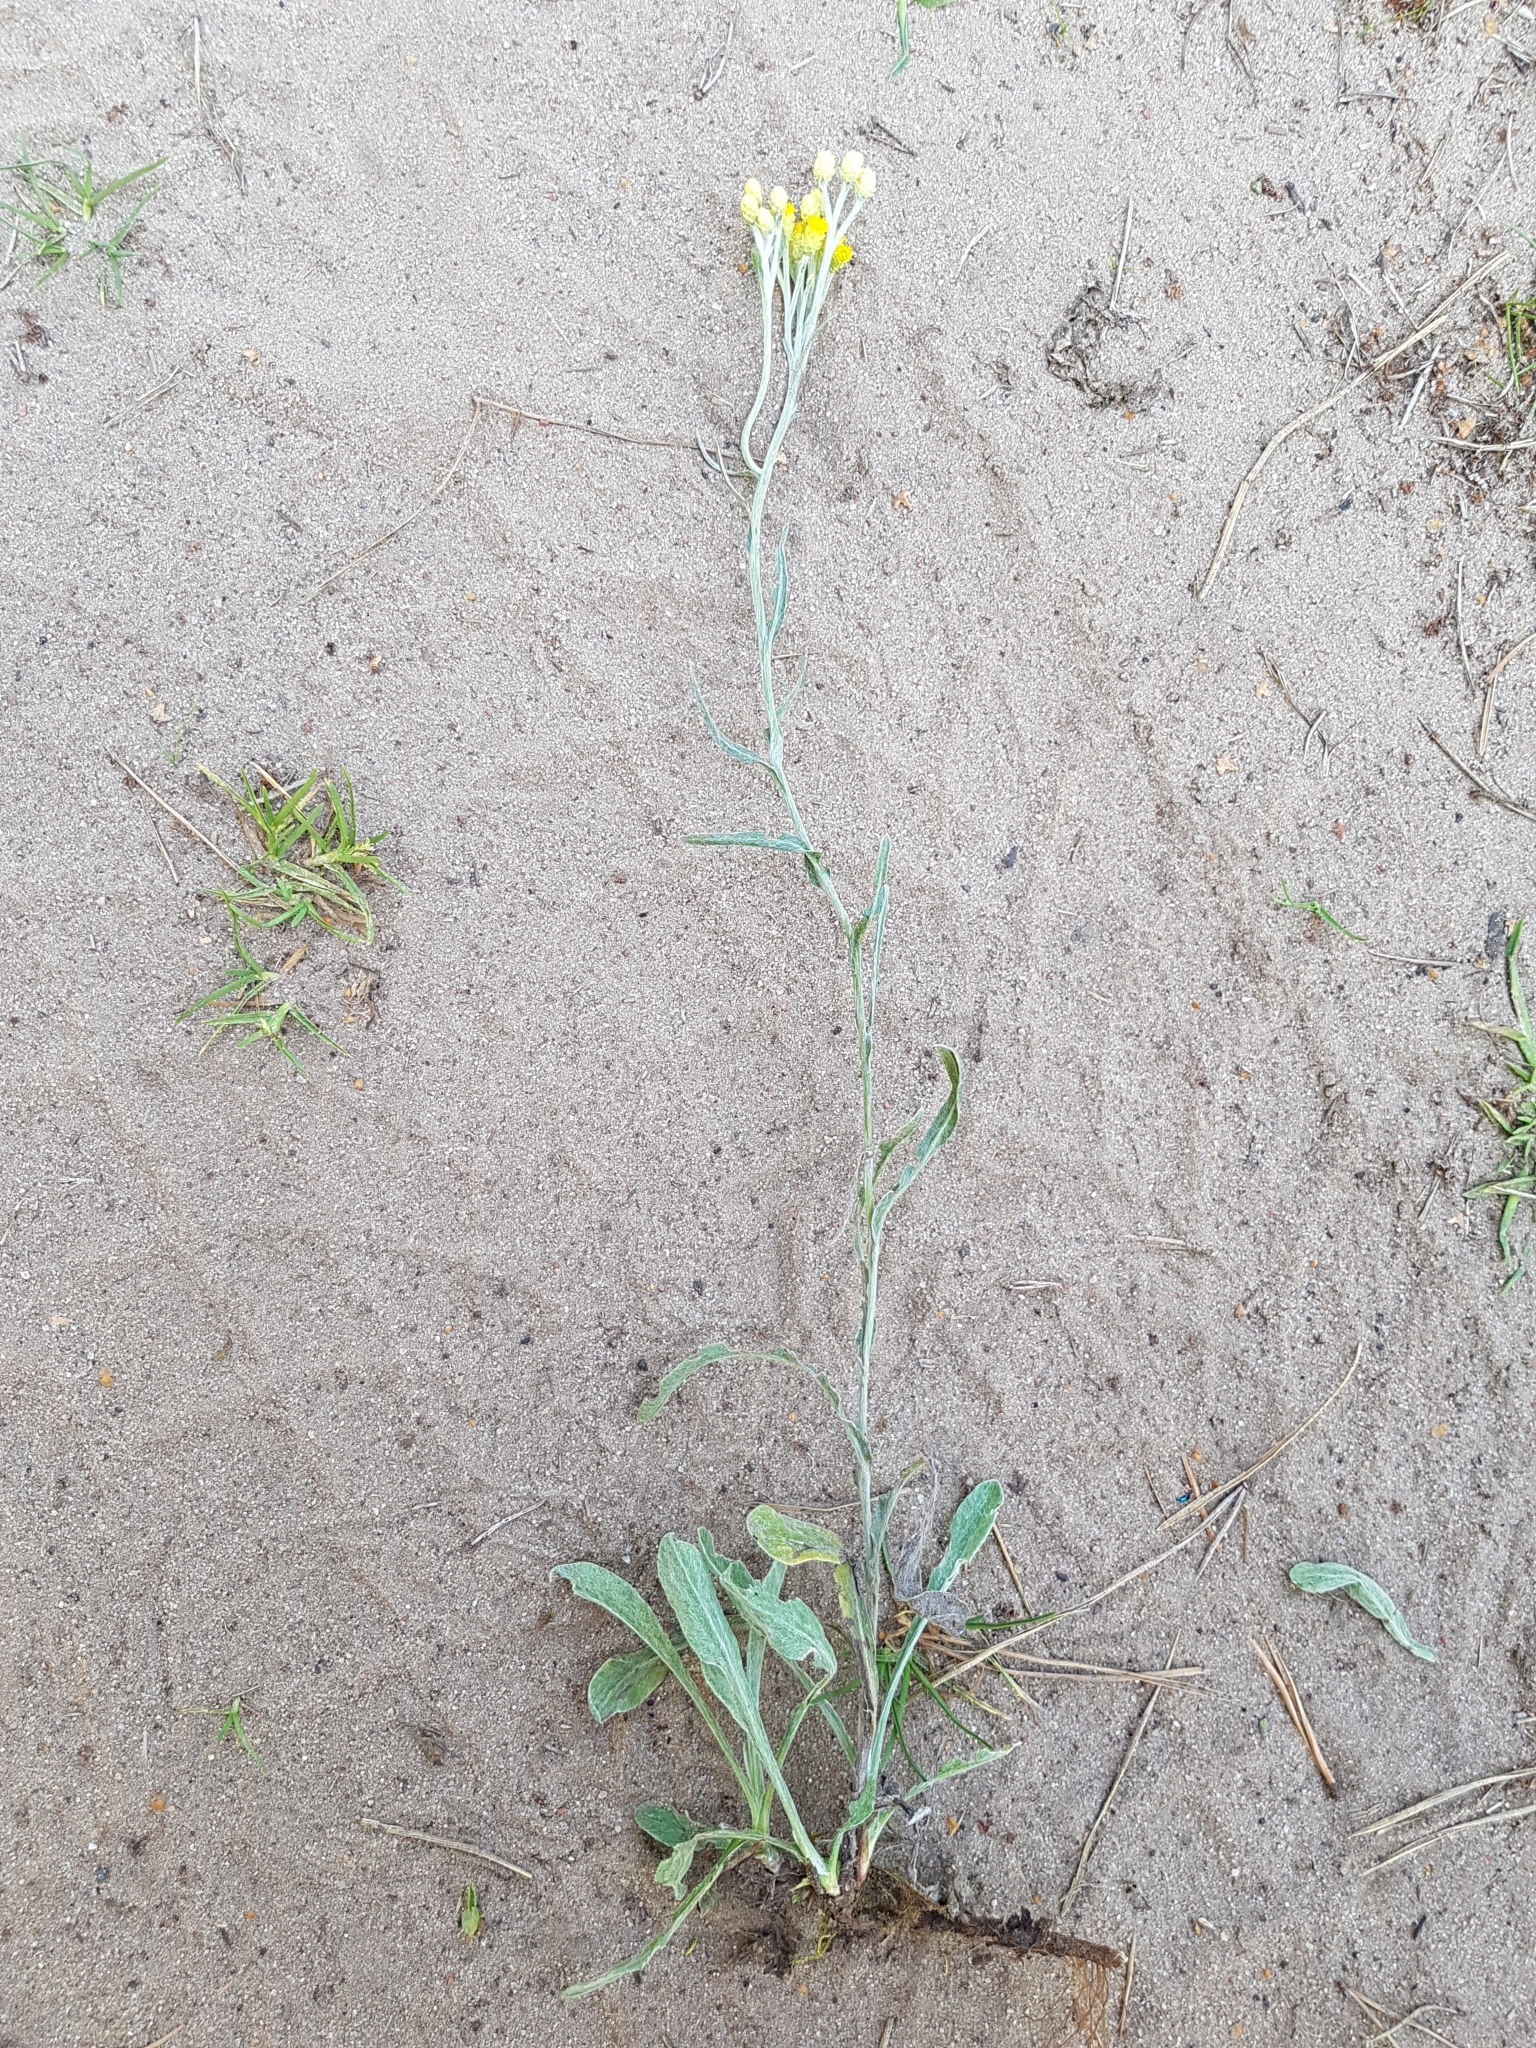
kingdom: Plantae
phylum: Tracheophyta
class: Magnoliopsida
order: Asterales
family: Asteraceae
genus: Helichrysum
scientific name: Helichrysum arenarium
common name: Strawflower
